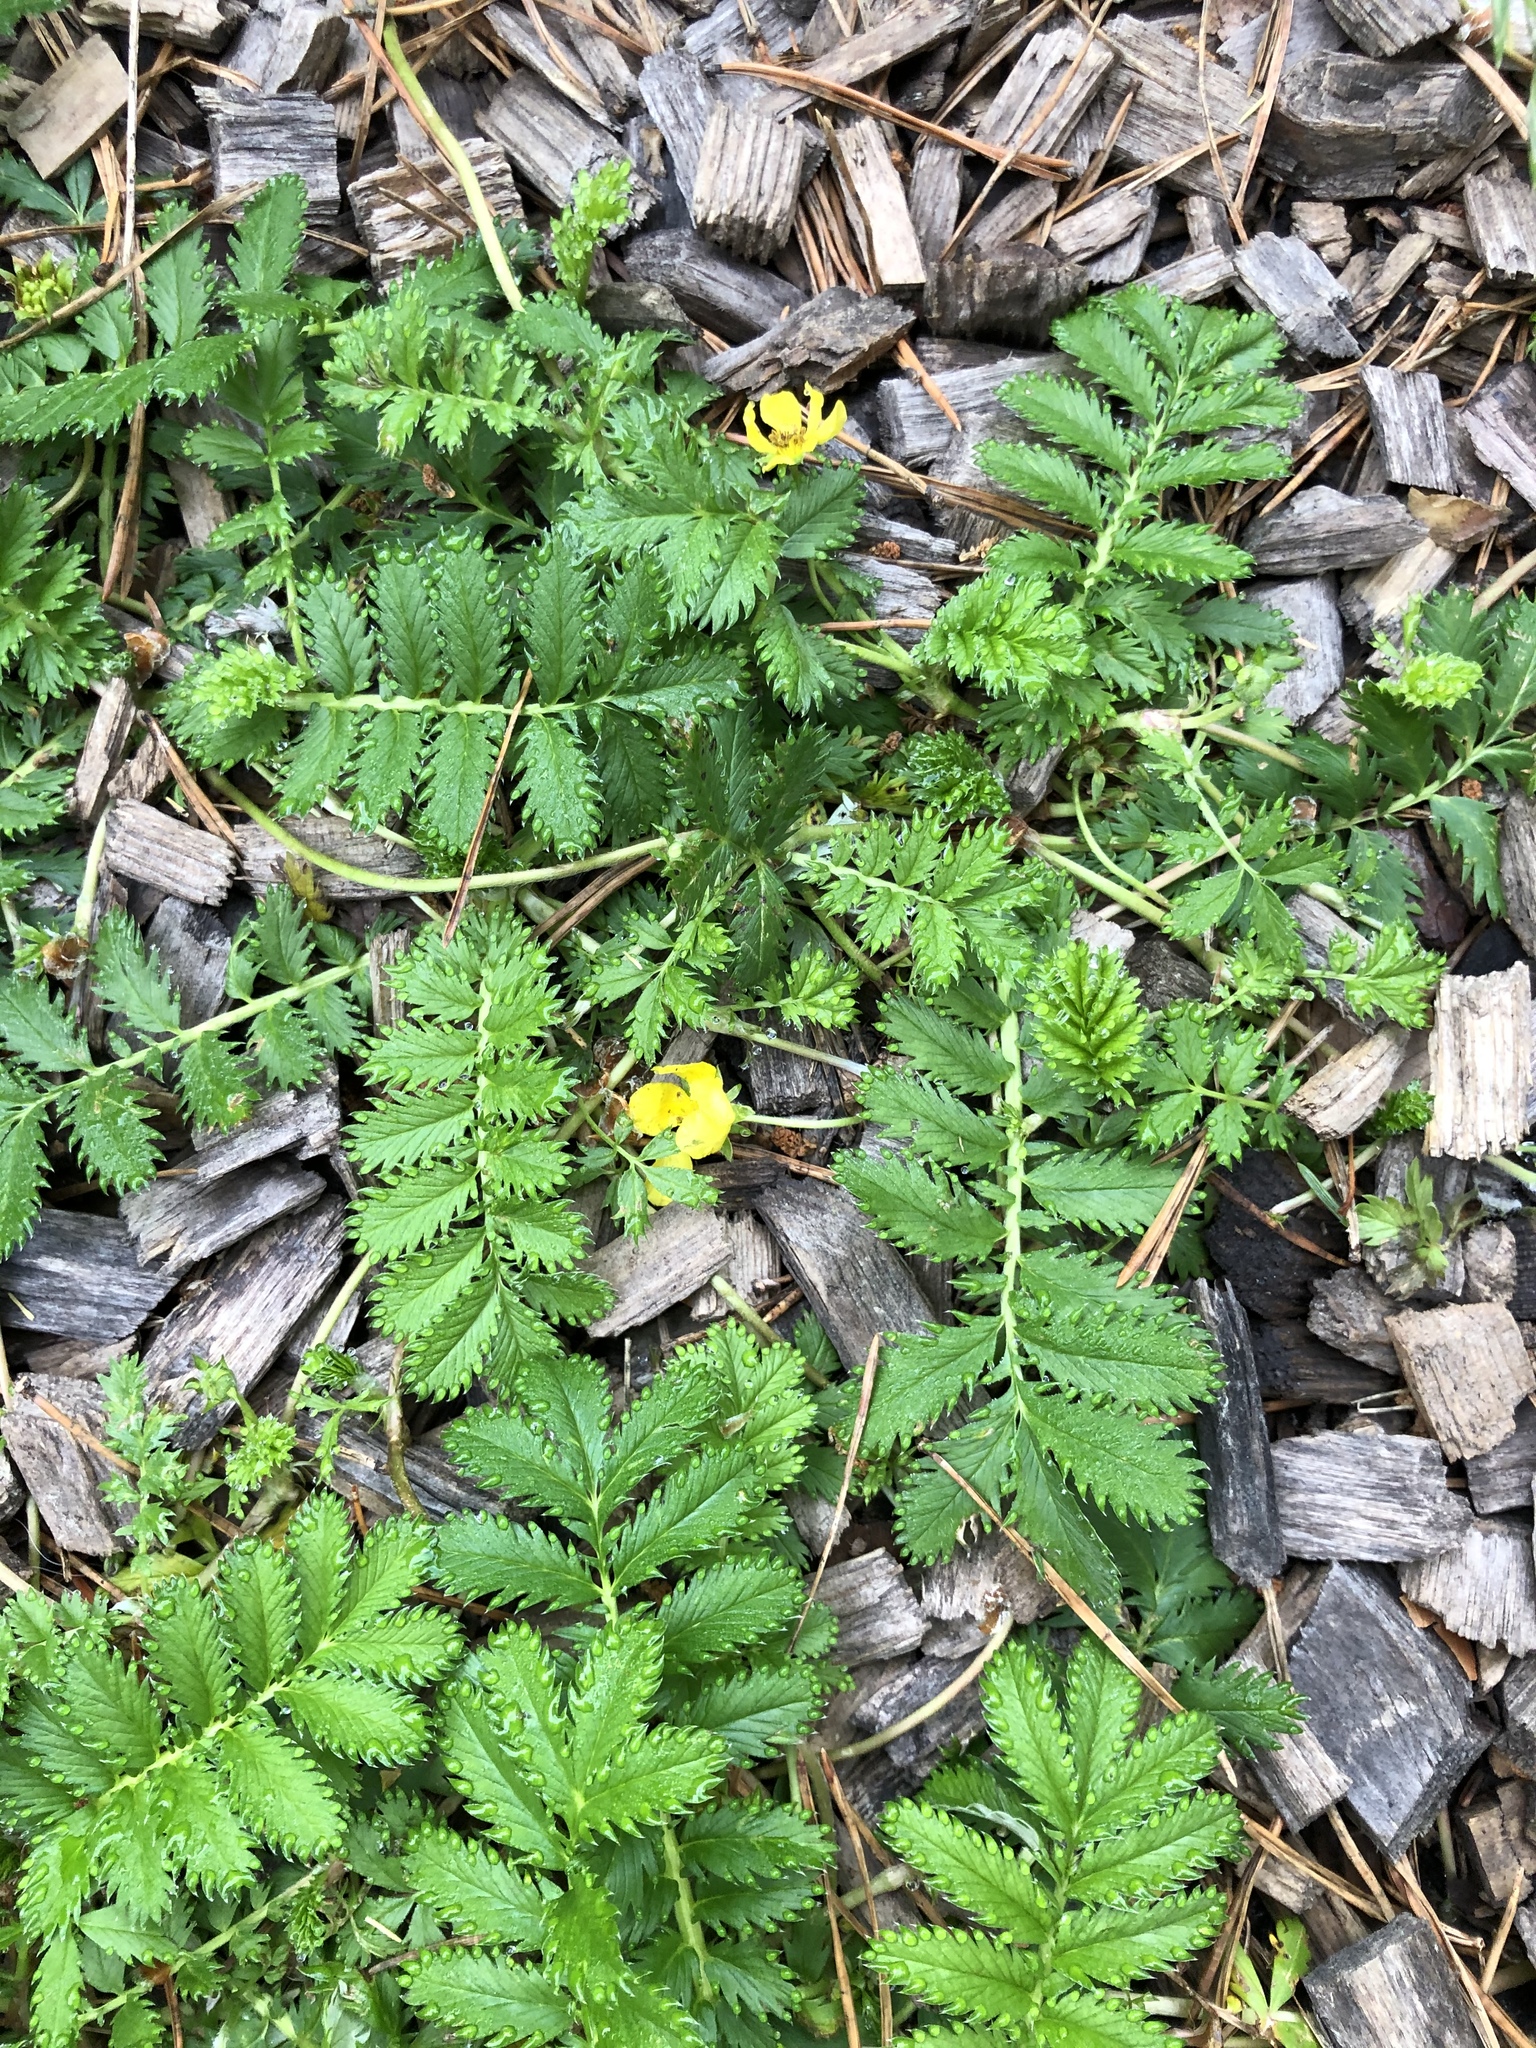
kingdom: Plantae
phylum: Tracheophyta
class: Magnoliopsida
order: Rosales
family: Rosaceae
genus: Argentina
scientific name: Argentina anserina
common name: Common silverweed
